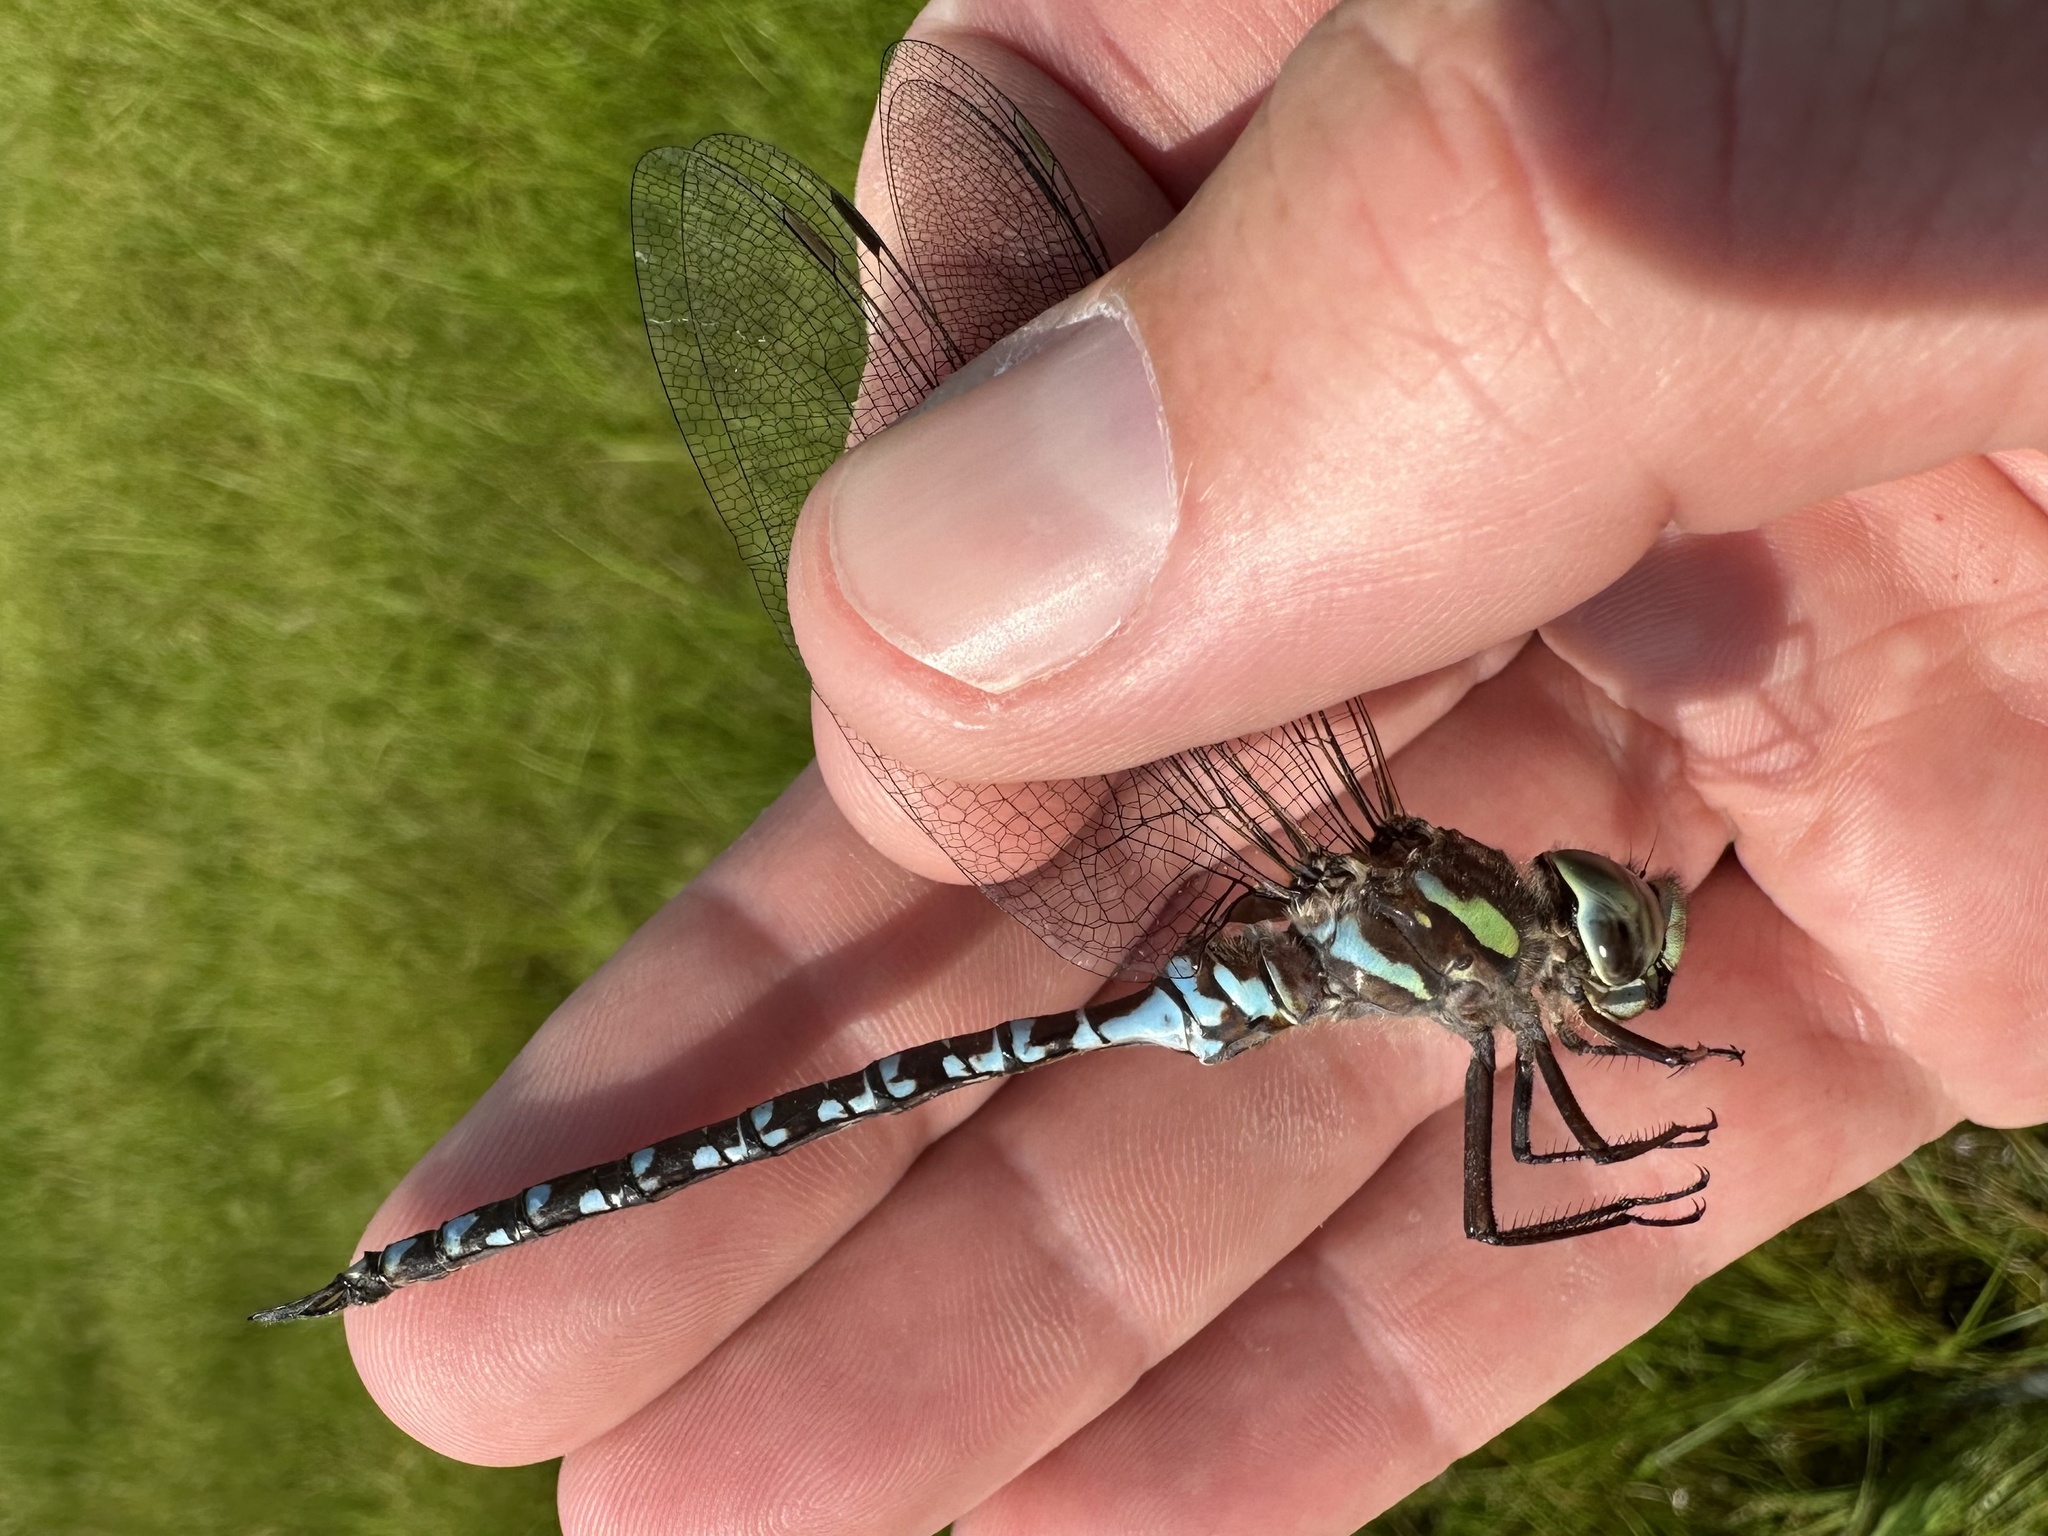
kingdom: Animalia
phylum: Arthropoda
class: Insecta
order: Odonata
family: Aeshnidae
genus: Aeshna
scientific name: Aeshna canadensis
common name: Canada darner
